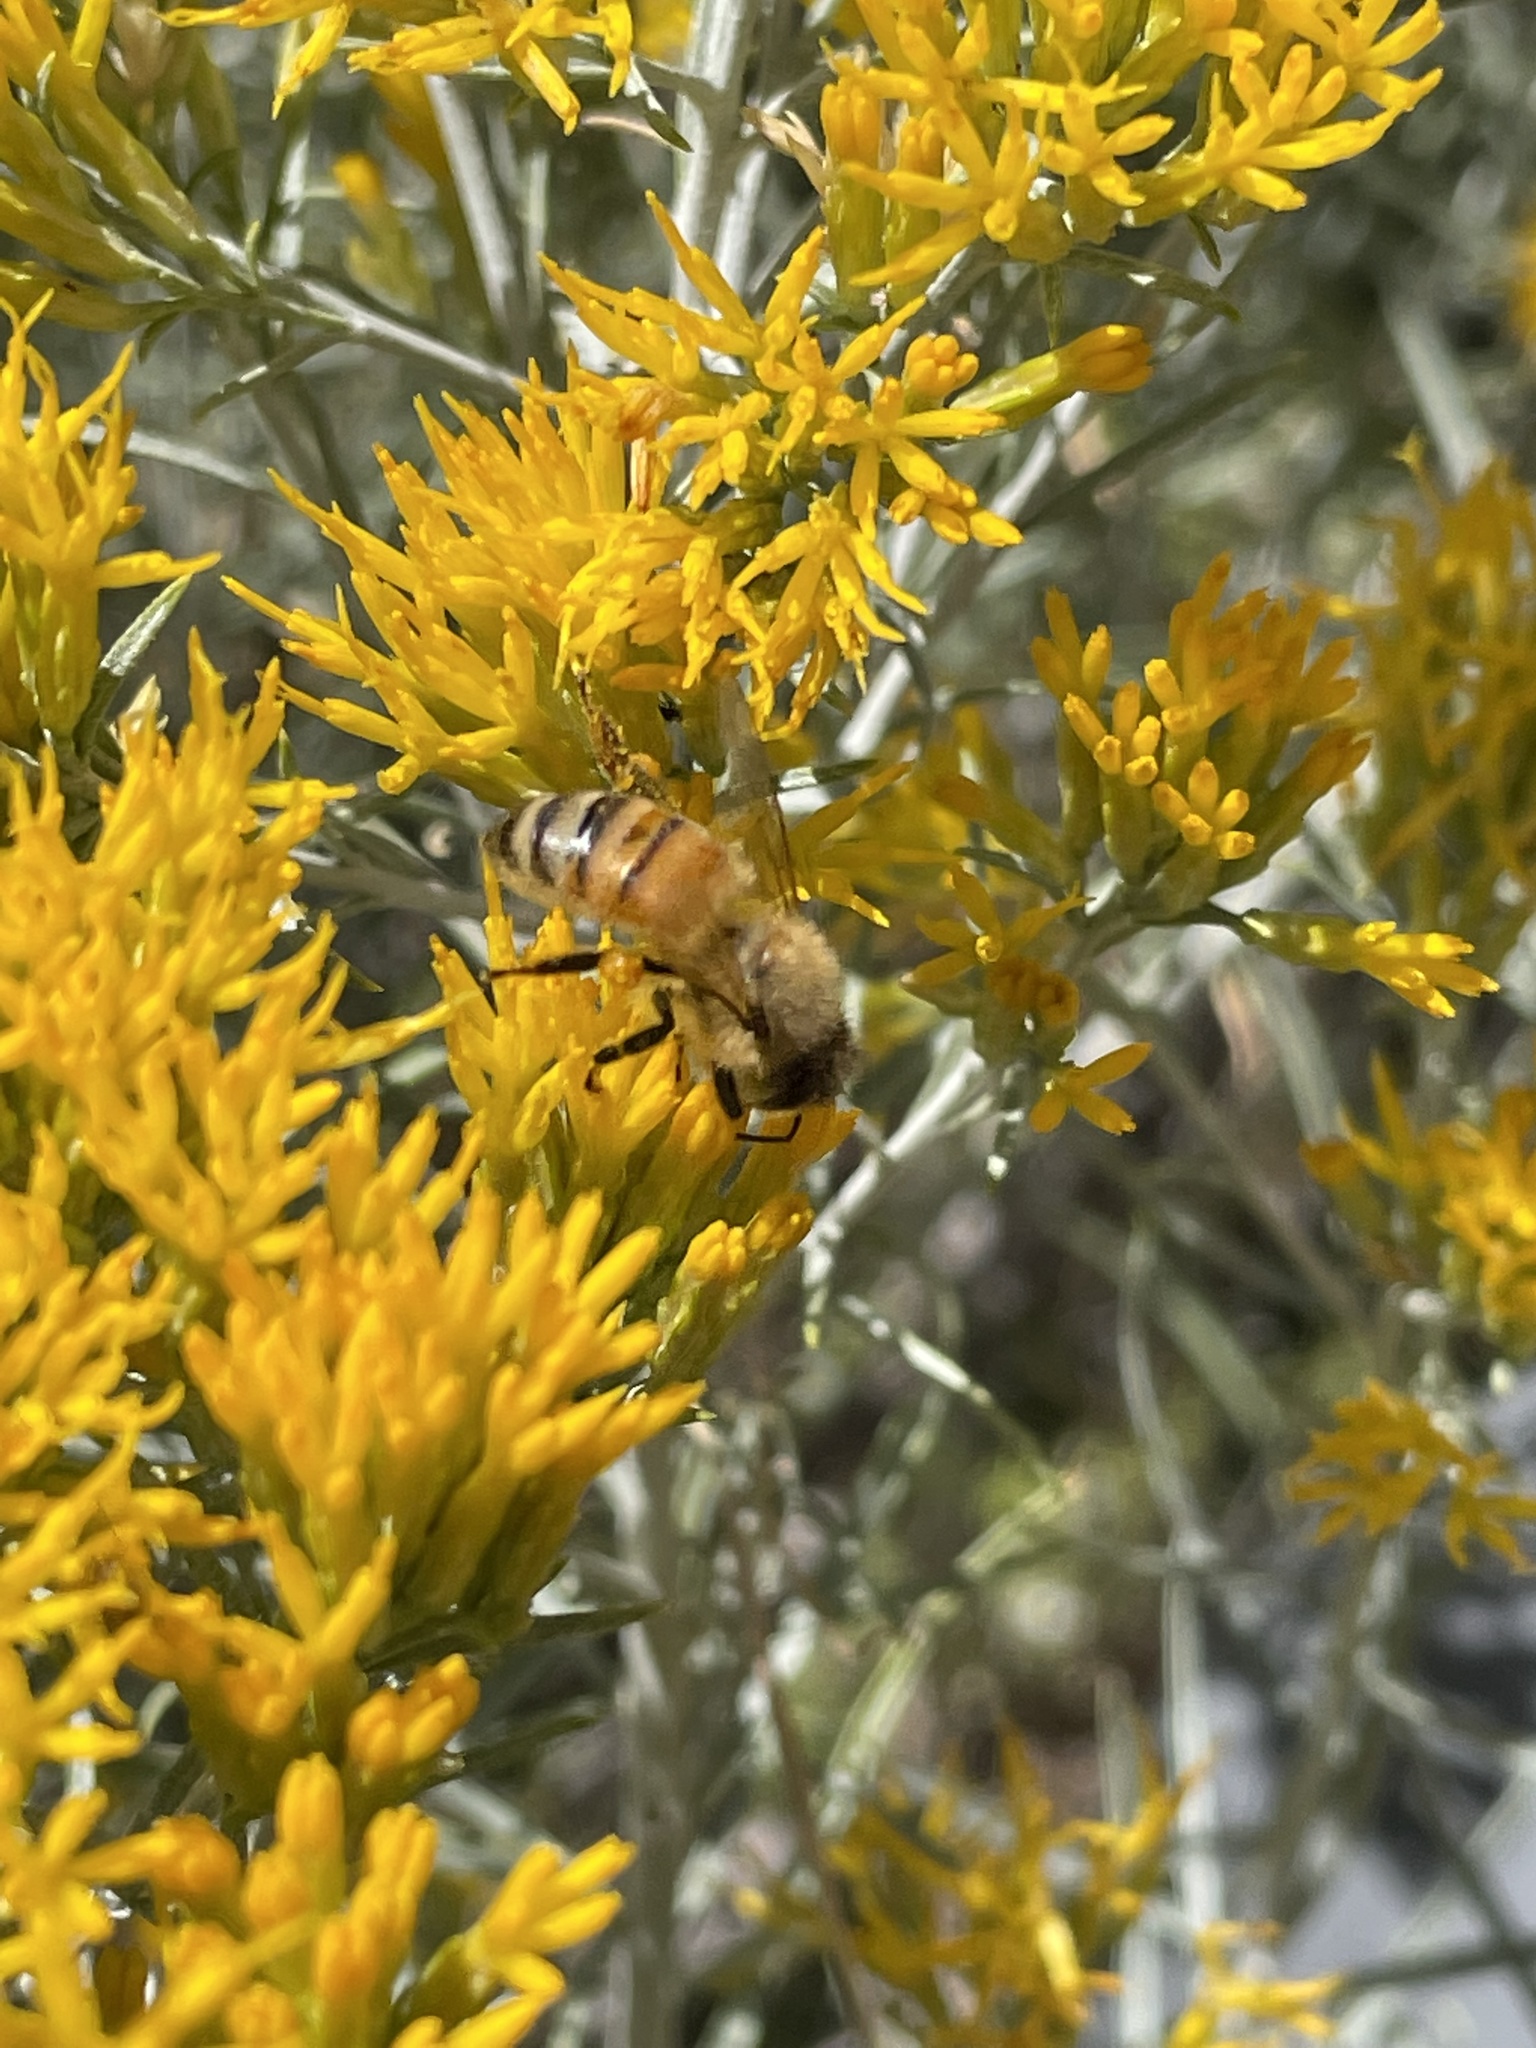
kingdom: Animalia
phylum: Arthropoda
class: Insecta
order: Hymenoptera
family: Apidae
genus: Apis
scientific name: Apis mellifera
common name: Honey bee
